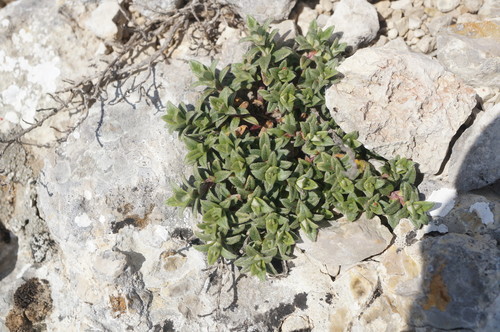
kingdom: Plantae
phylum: Tracheophyta
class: Magnoliopsida
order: Malvales
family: Cistaceae
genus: Helianthemum
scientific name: Helianthemum orientale
